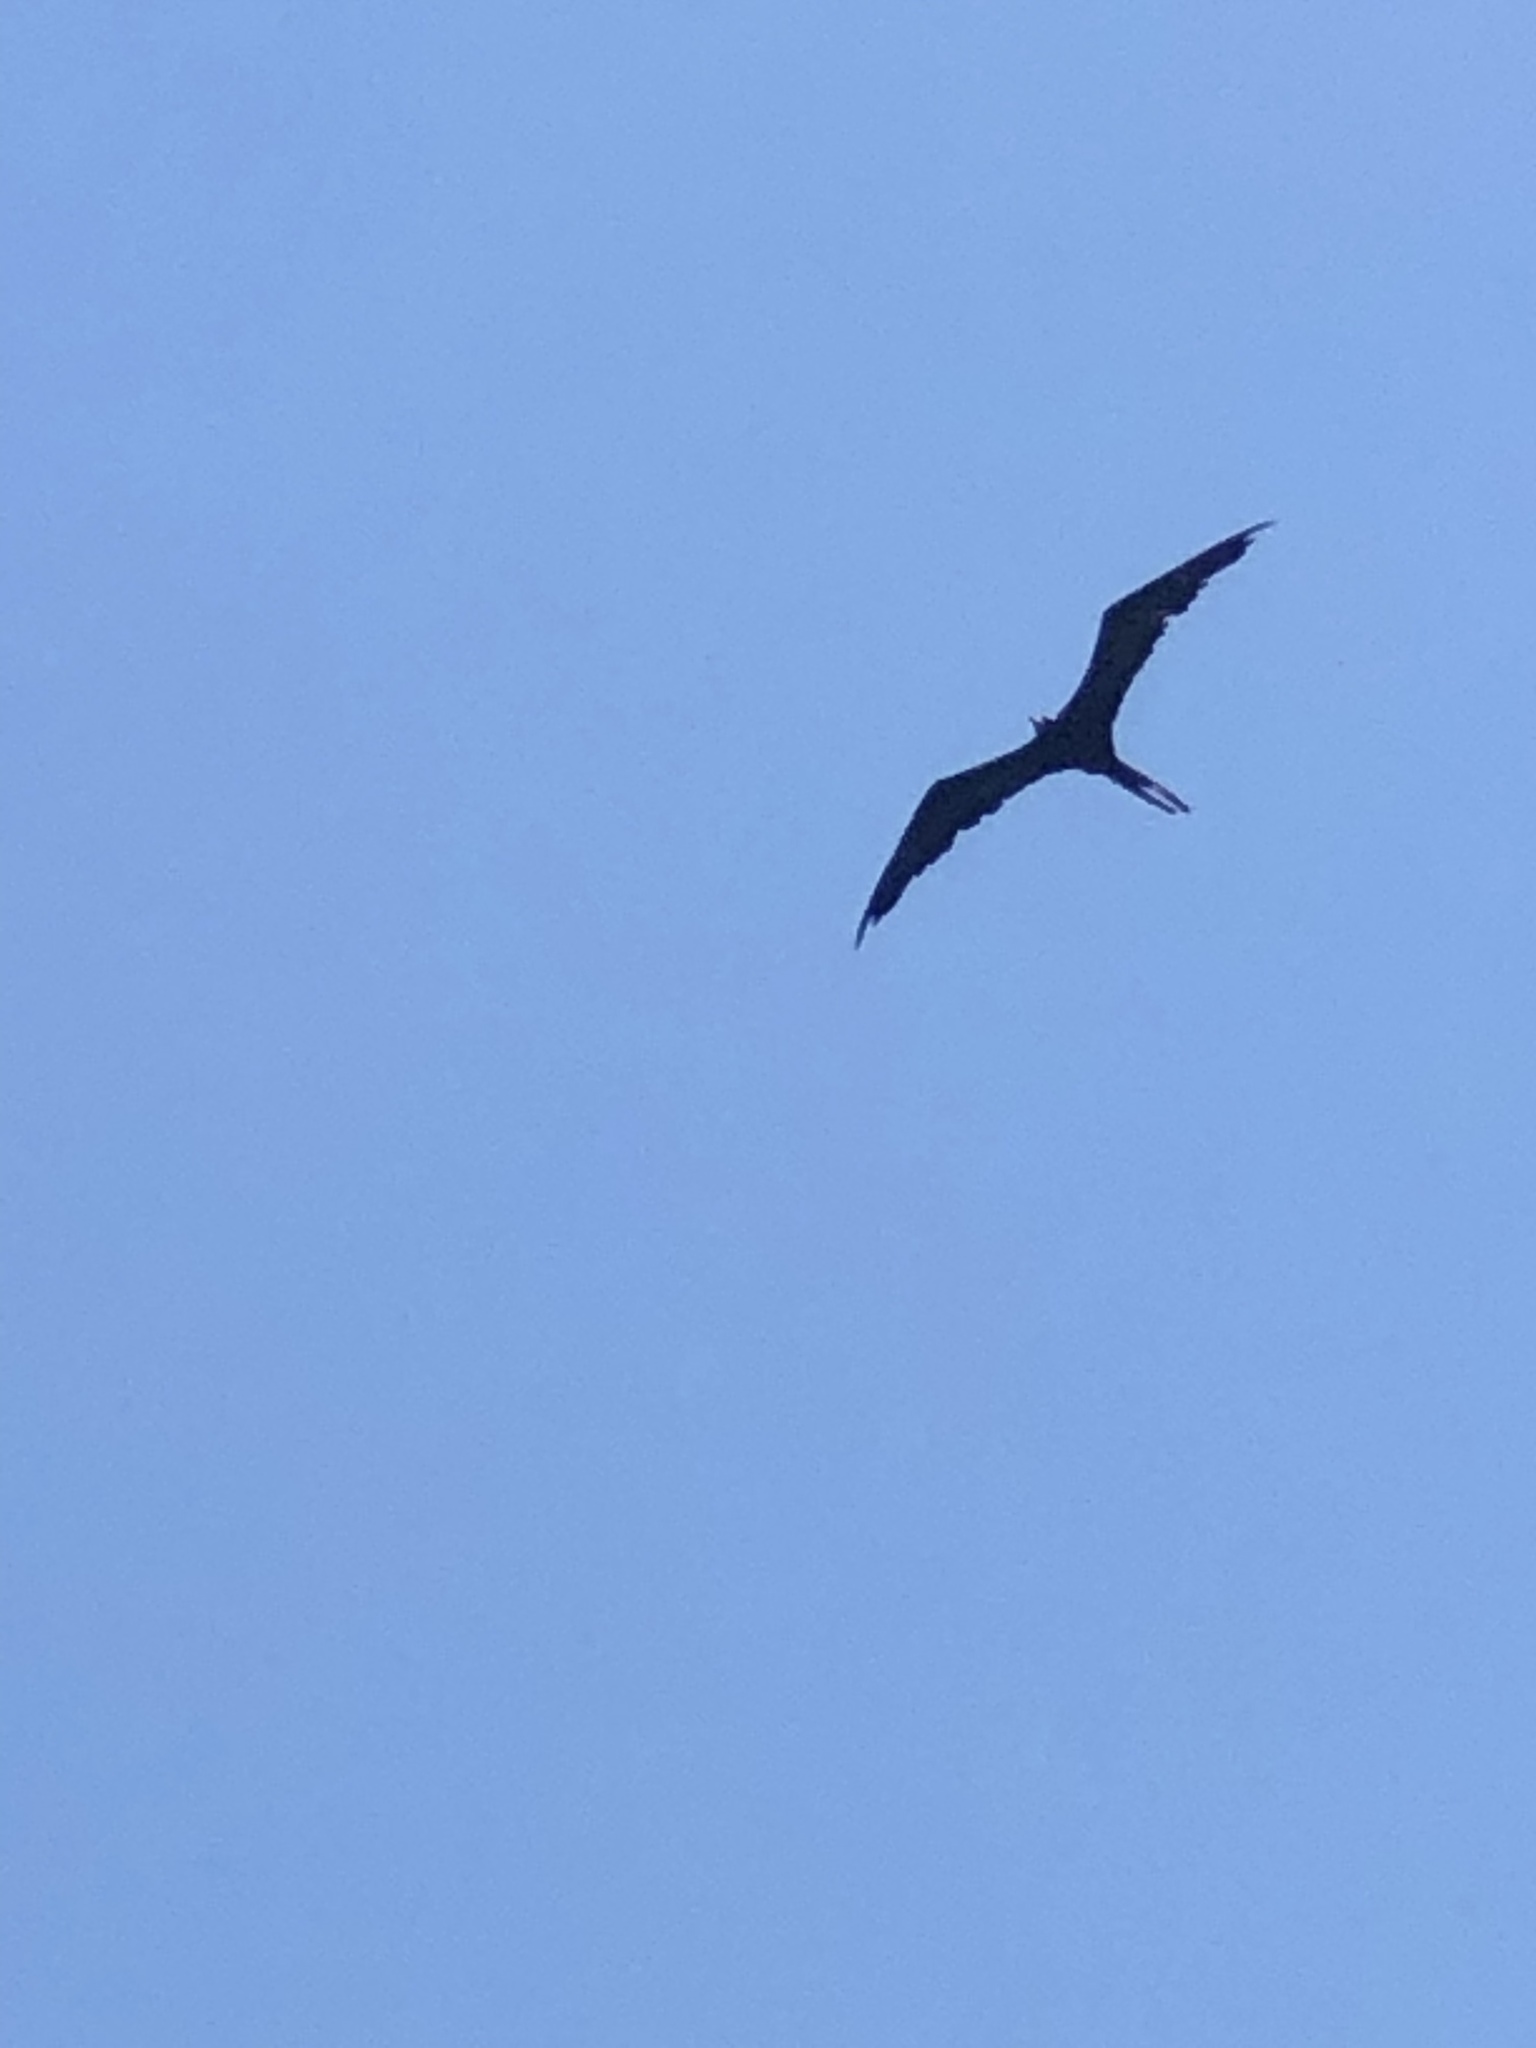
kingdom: Animalia
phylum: Chordata
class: Aves
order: Suliformes
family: Fregatidae
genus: Fregata
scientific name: Fregata magnificens
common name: Magnificent frigatebird
